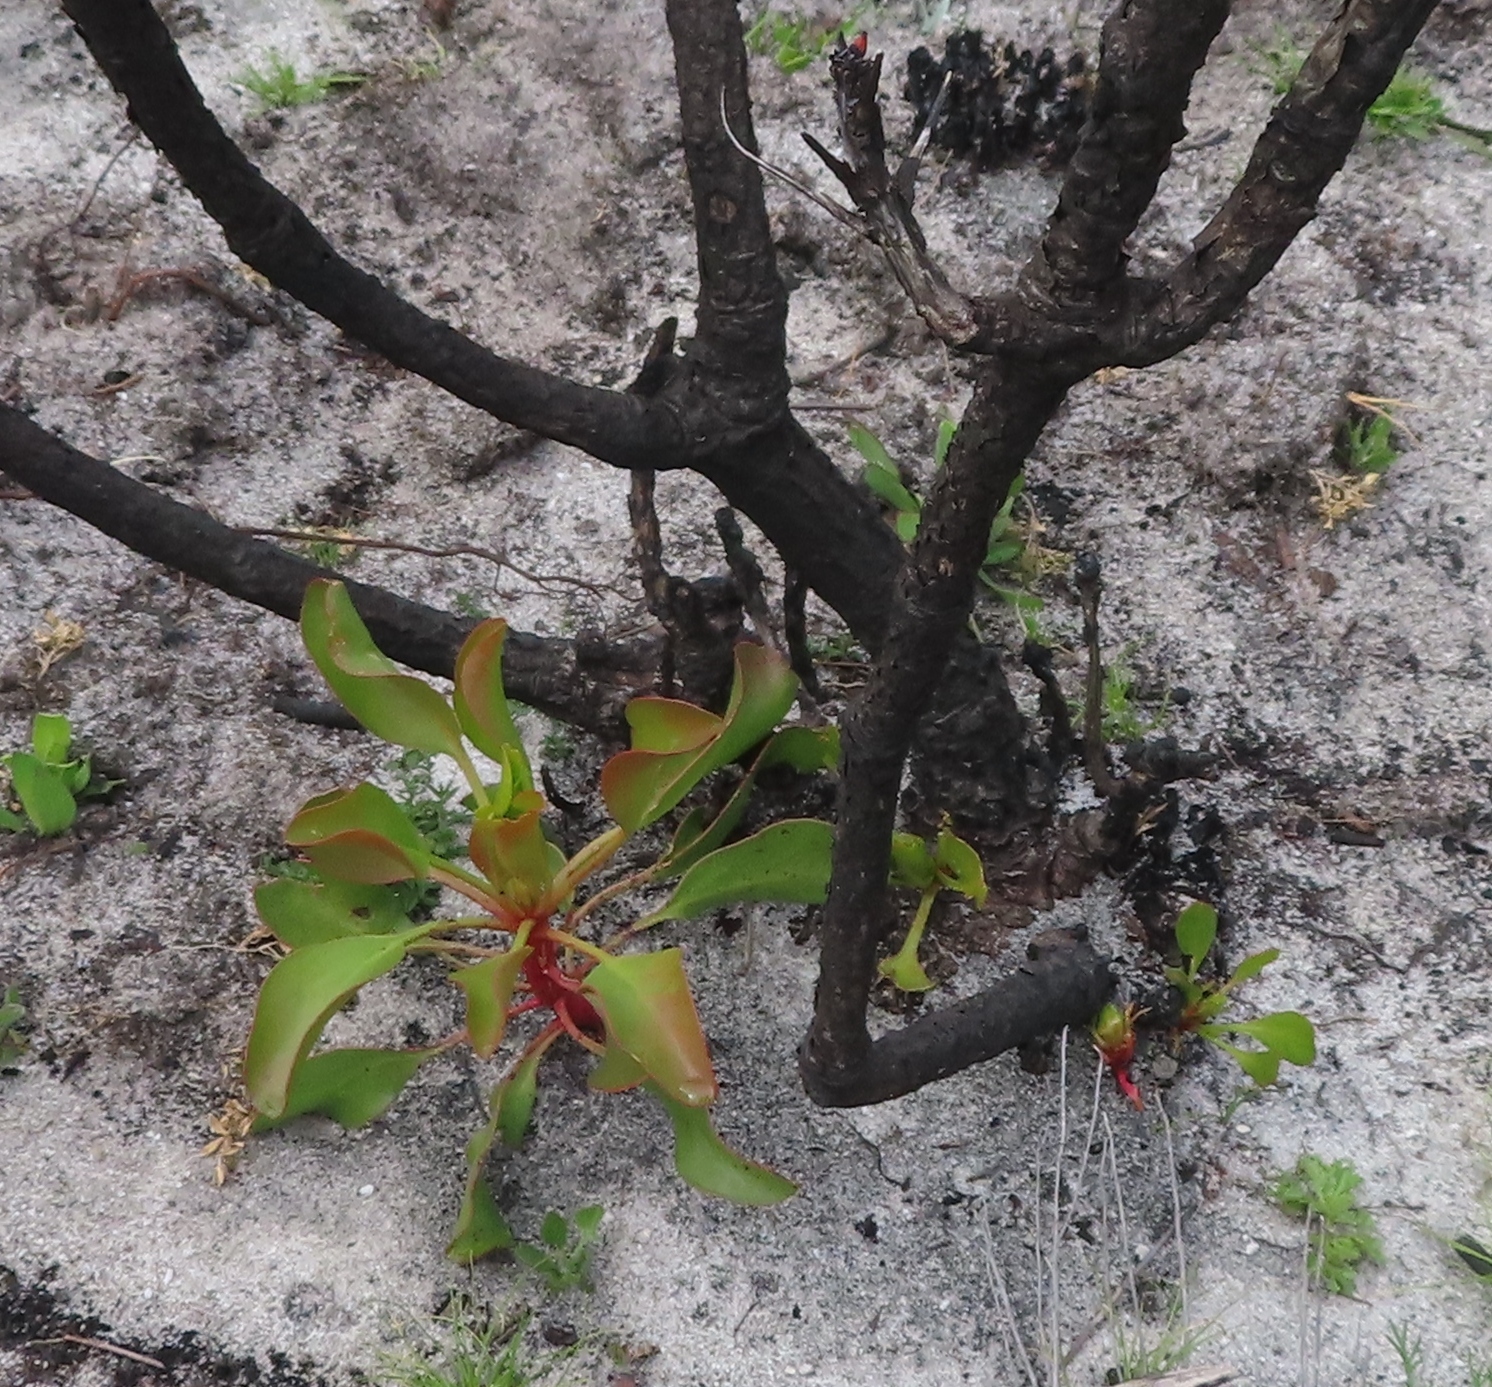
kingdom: Plantae
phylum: Tracheophyta
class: Magnoliopsida
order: Proteales
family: Proteaceae
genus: Protea
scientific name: Protea cynaroides
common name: King protea
